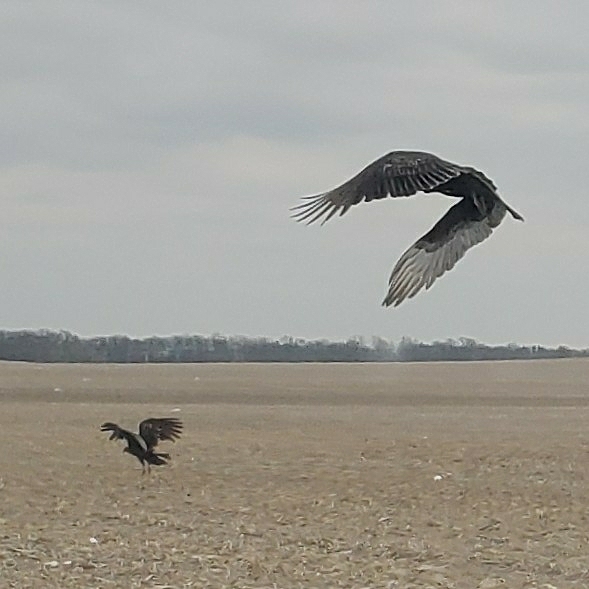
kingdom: Animalia
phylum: Chordata
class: Aves
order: Accipitriformes
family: Cathartidae
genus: Cathartes
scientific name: Cathartes aura
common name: Turkey vulture
